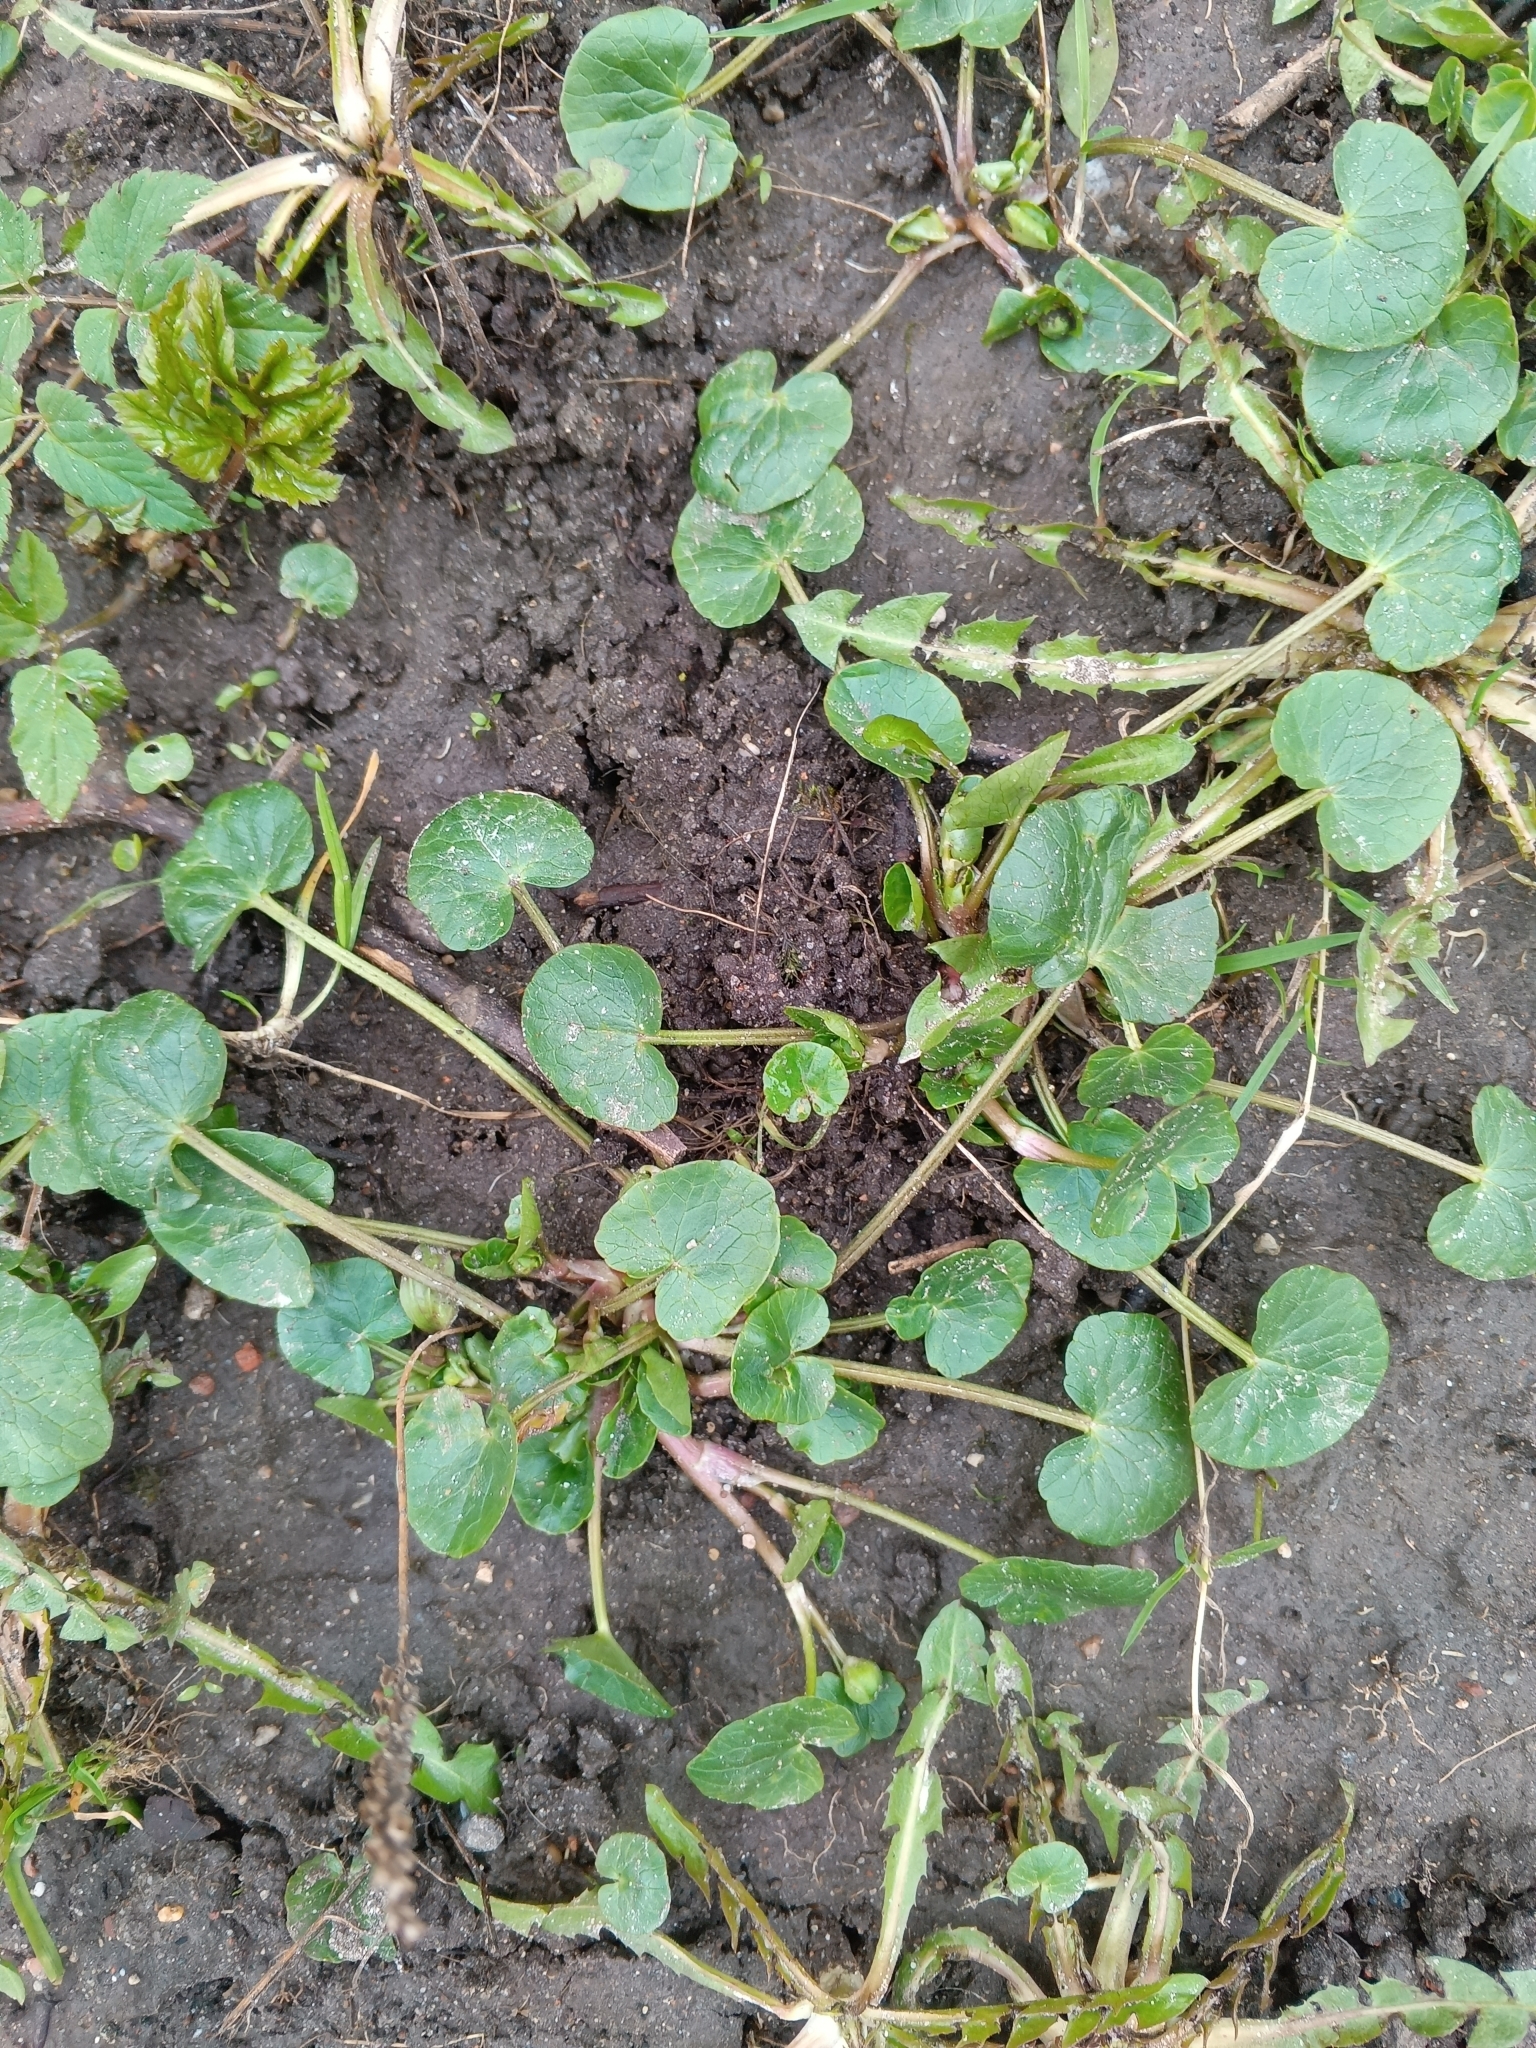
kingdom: Plantae
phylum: Tracheophyta
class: Magnoliopsida
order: Ranunculales
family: Ranunculaceae
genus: Ficaria
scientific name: Ficaria verna
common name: Lesser celandine
